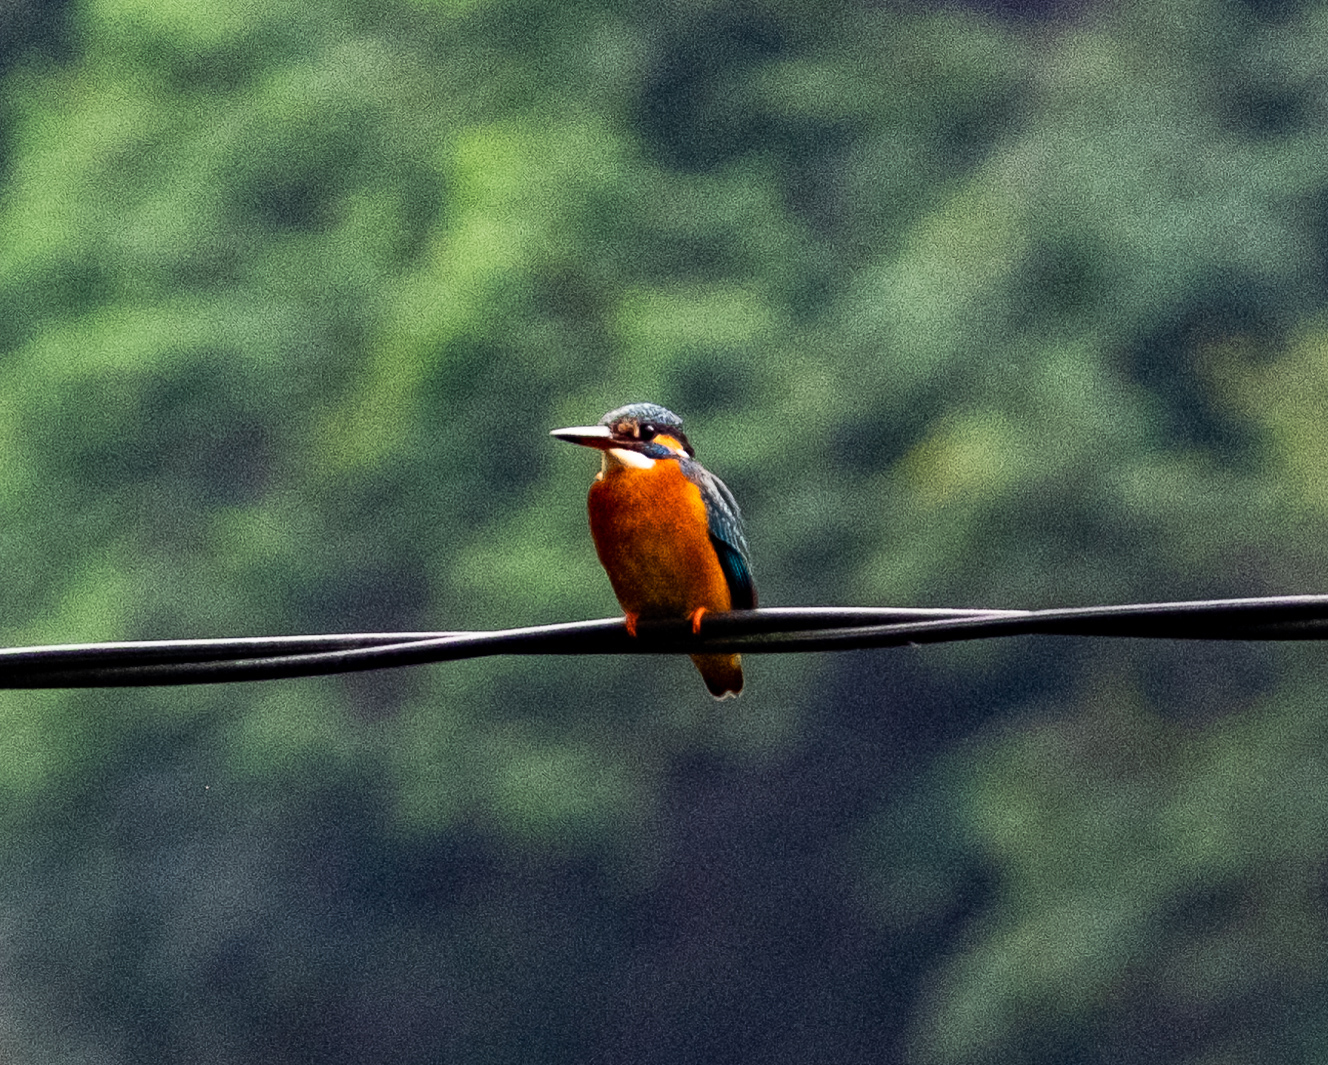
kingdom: Animalia
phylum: Chordata
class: Aves
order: Coraciiformes
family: Alcedinidae
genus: Alcedo
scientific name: Alcedo atthis
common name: Common kingfisher
